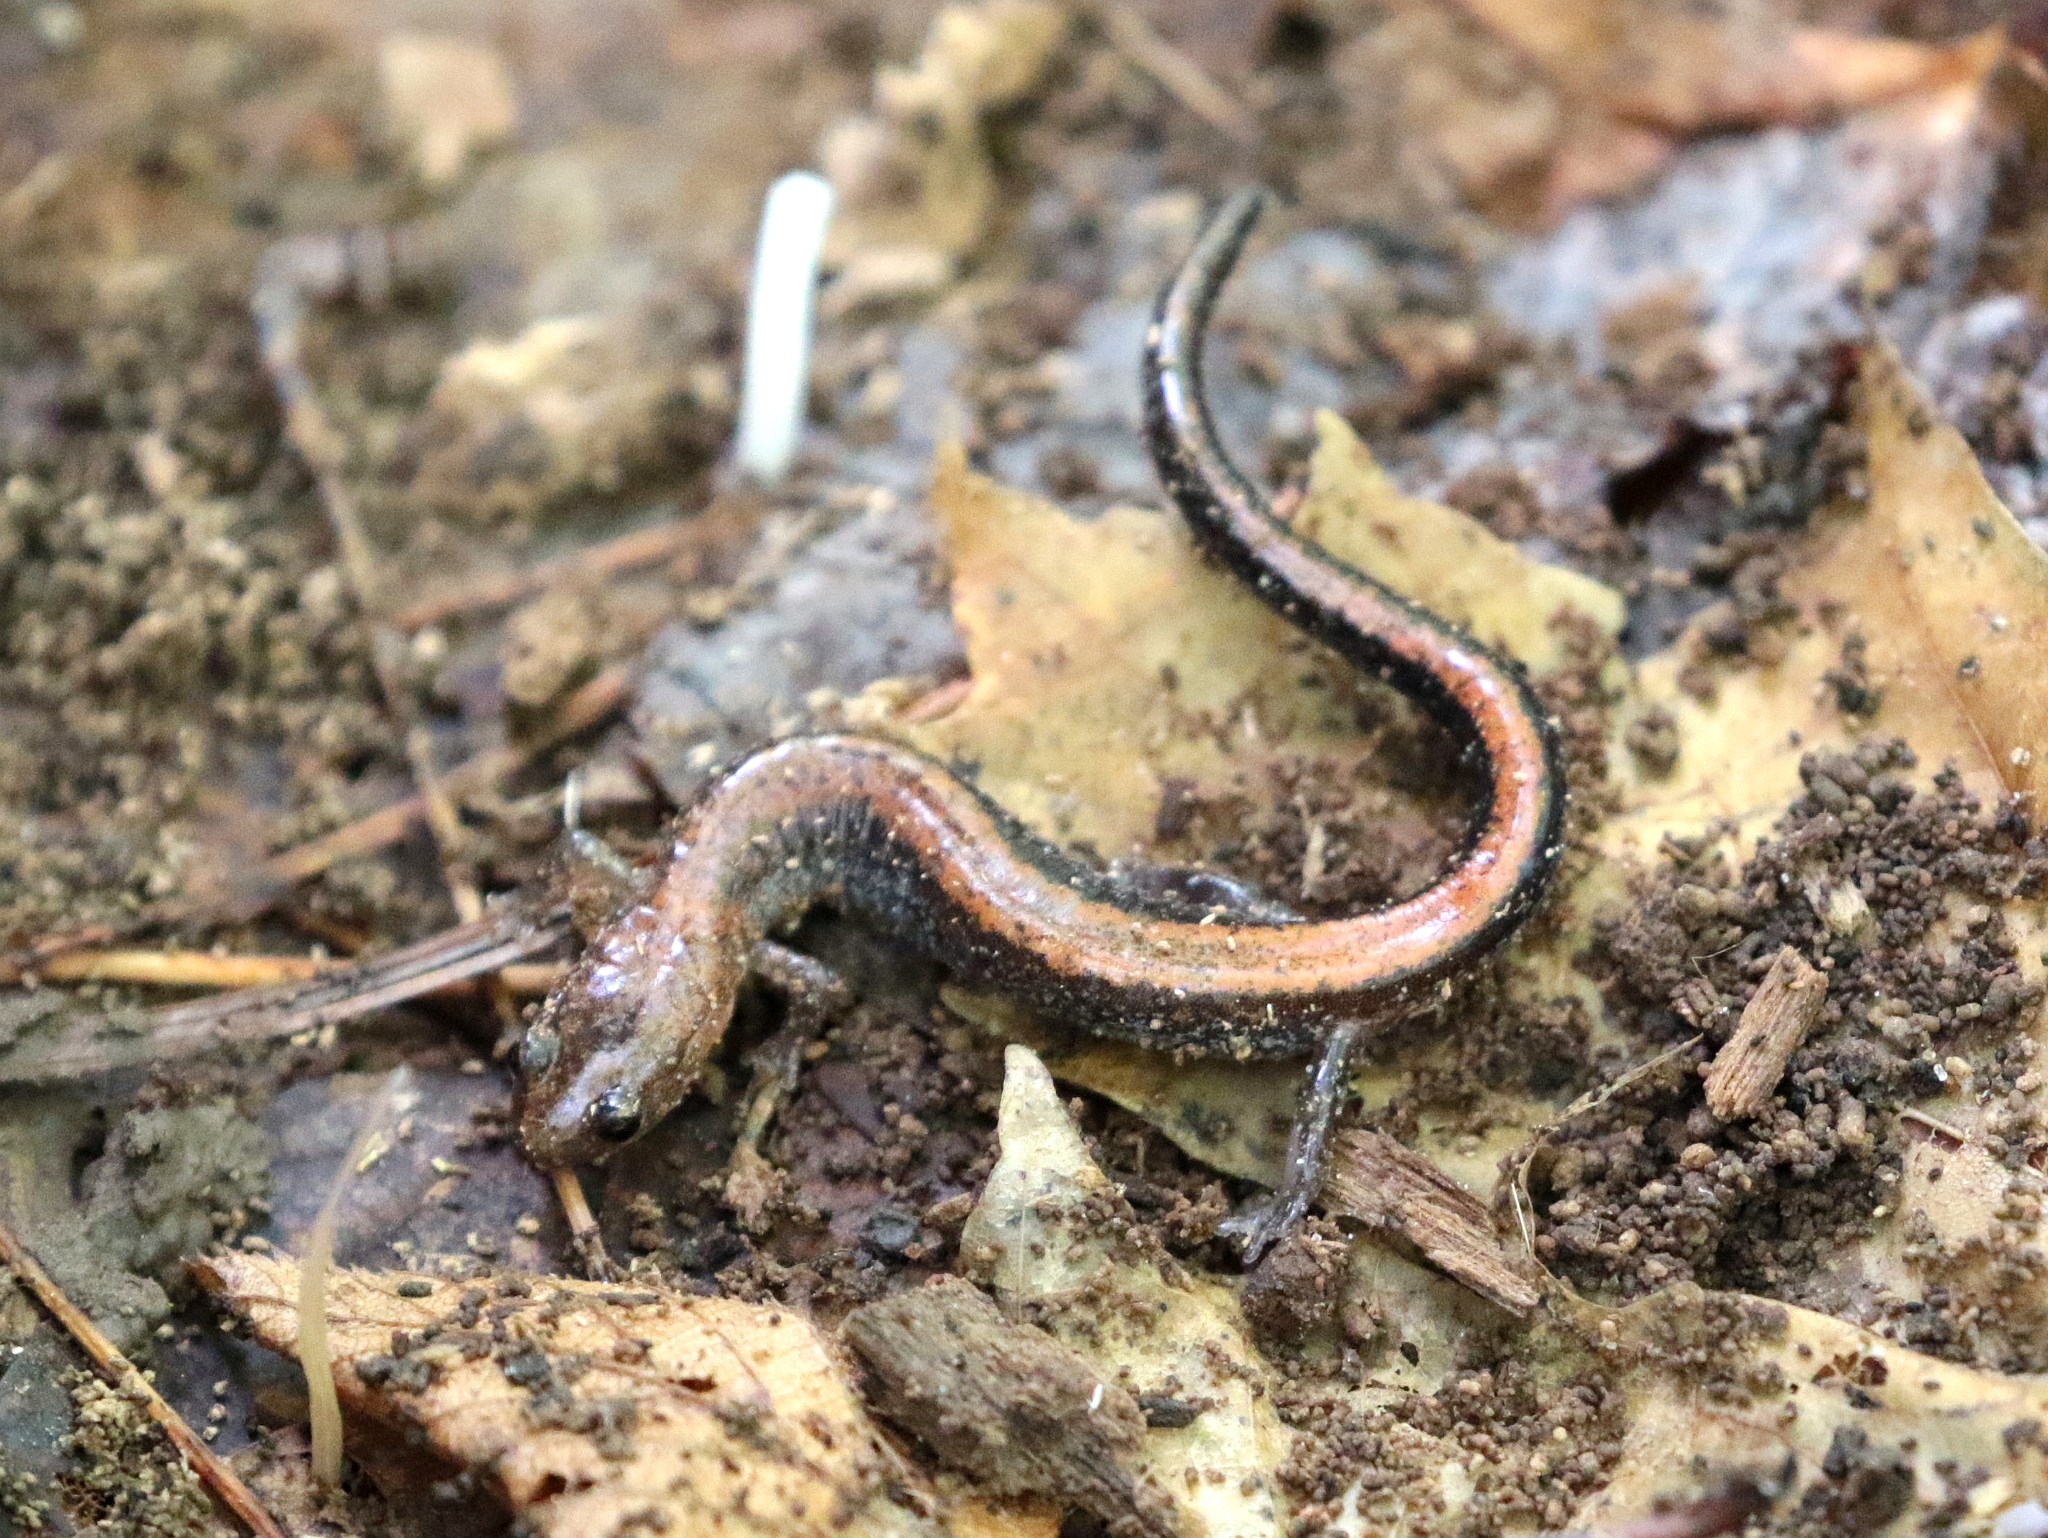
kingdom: Animalia
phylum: Chordata
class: Amphibia
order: Caudata
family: Plethodontidae
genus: Plethodon
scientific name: Plethodon cinereus
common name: Redback salamander
